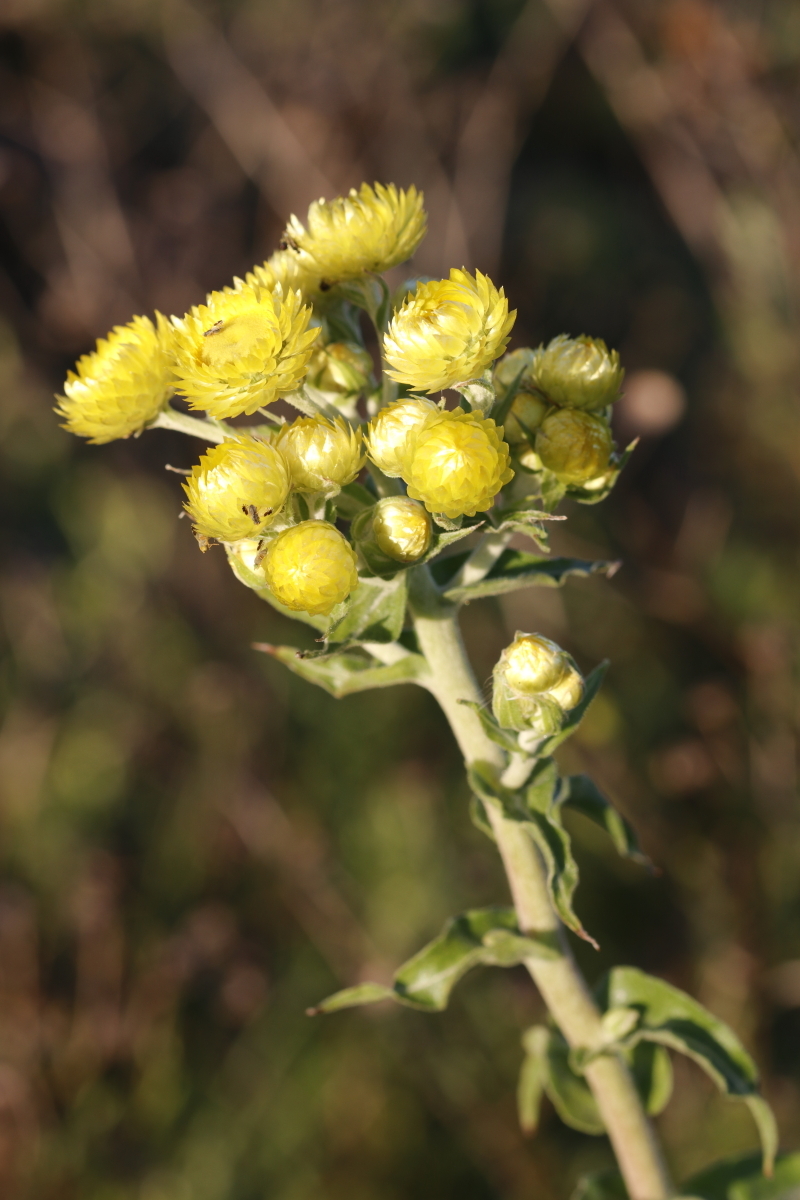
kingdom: Plantae
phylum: Tracheophyta
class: Magnoliopsida
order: Asterales
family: Asteraceae
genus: Helichrysum
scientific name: Helichrysum foetidum
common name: Stinking everlasting
